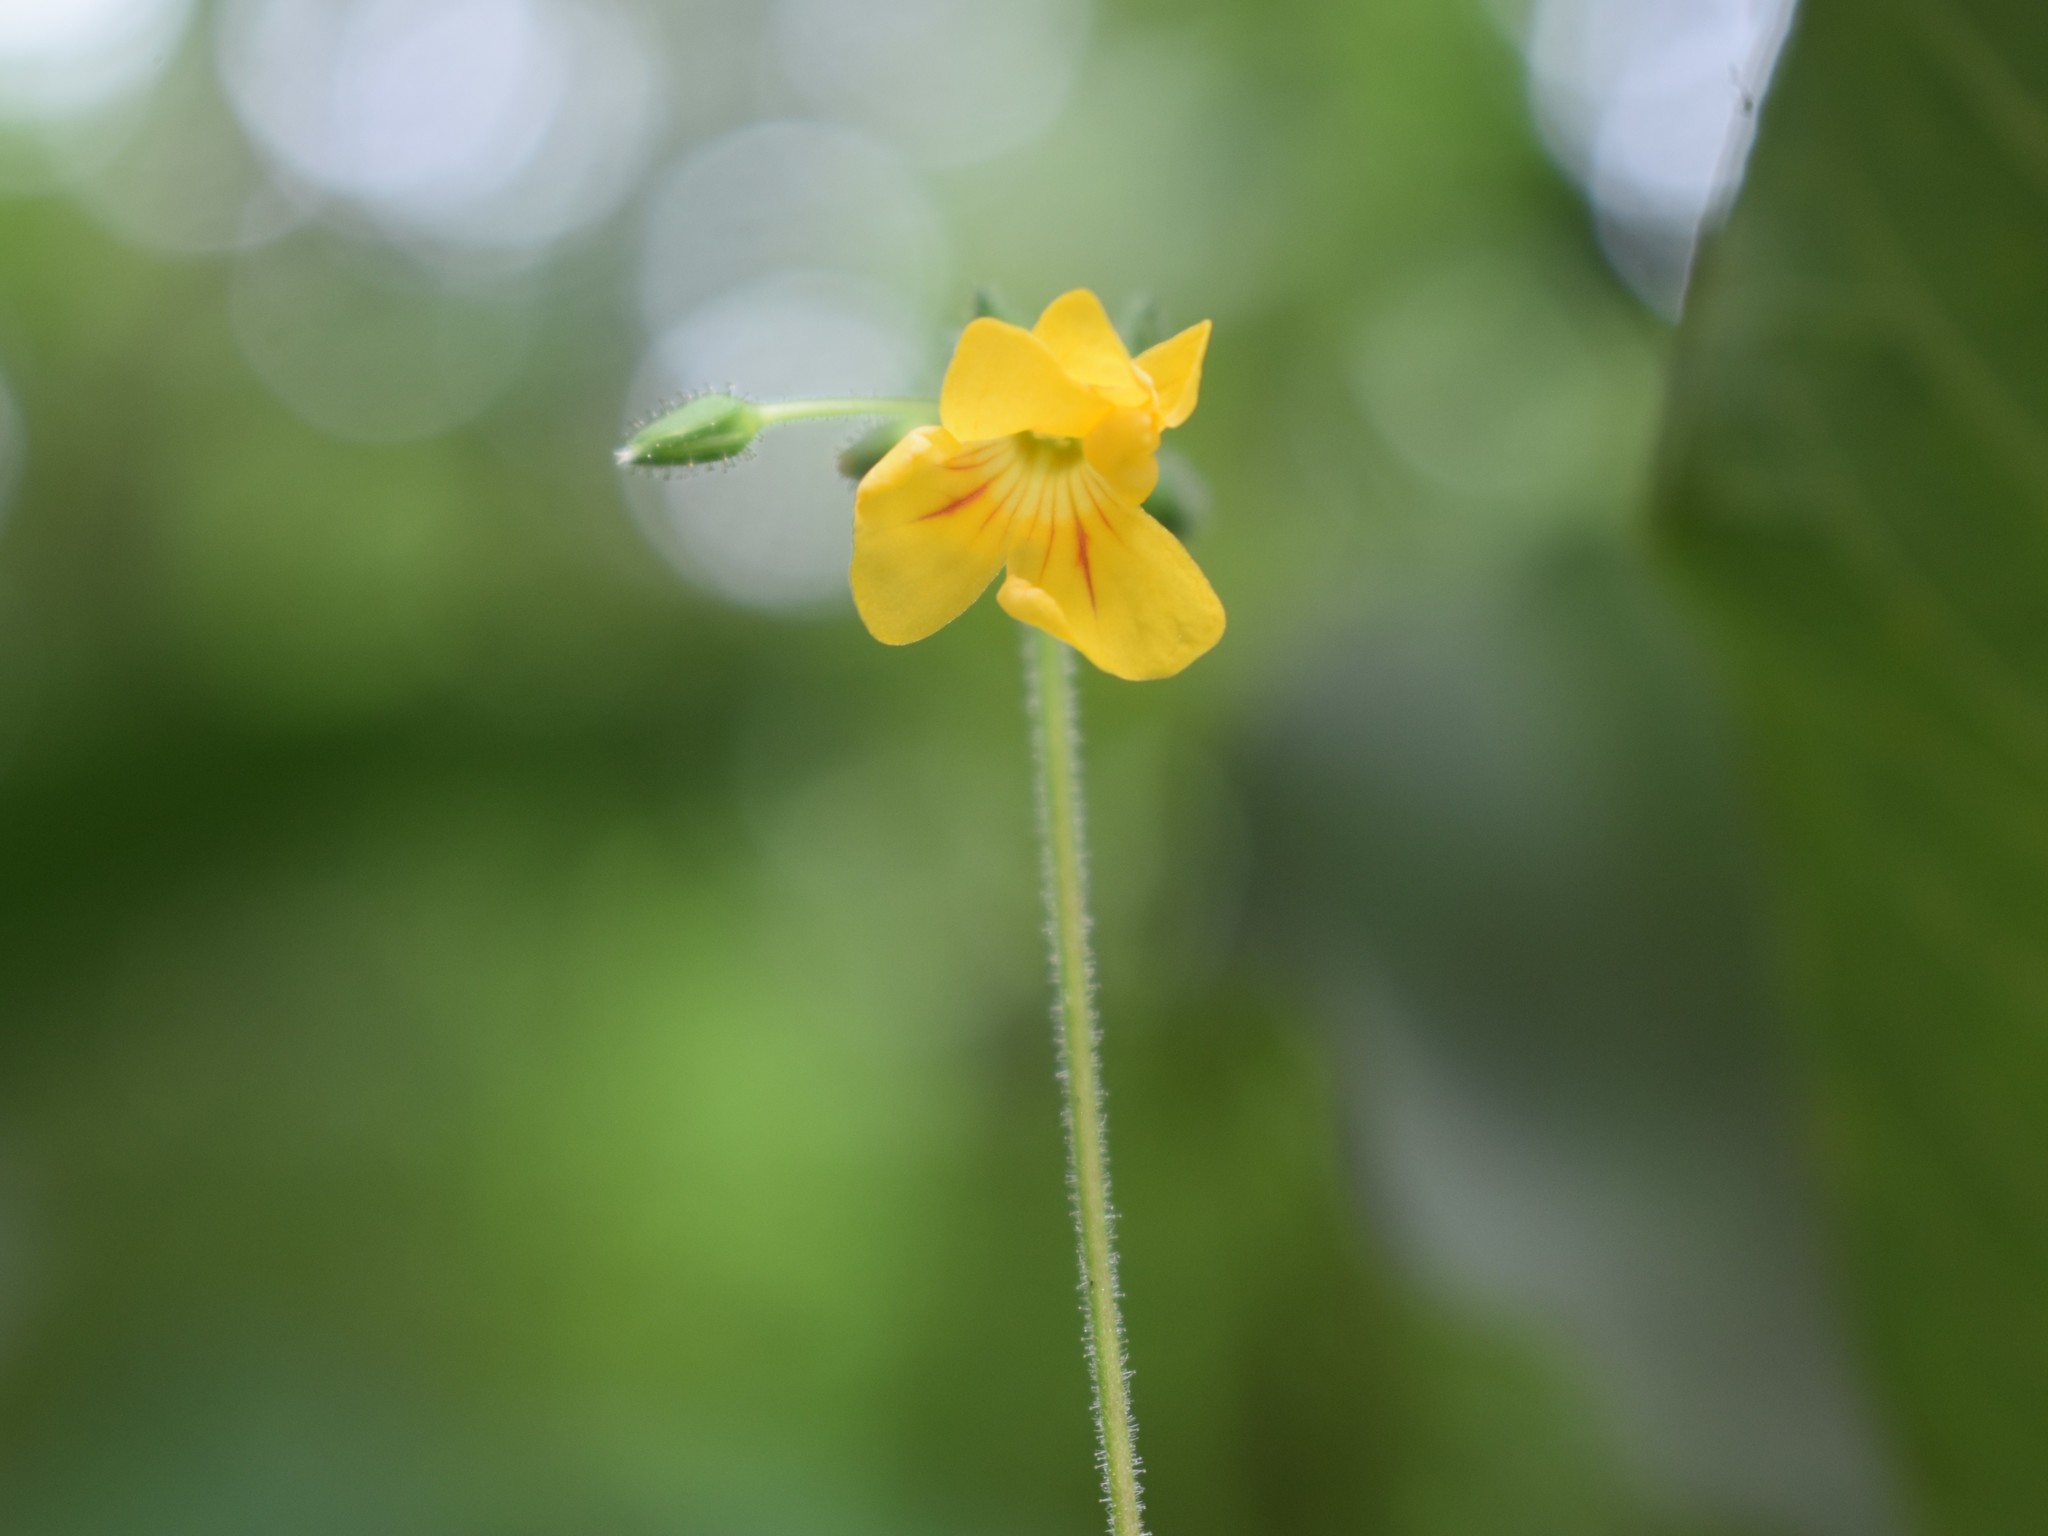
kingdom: Plantae
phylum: Tracheophyta
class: Magnoliopsida
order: Oxalidales
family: Oxalidaceae
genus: Biophytum
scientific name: Biophytum sensitivum
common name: Lifeplant
